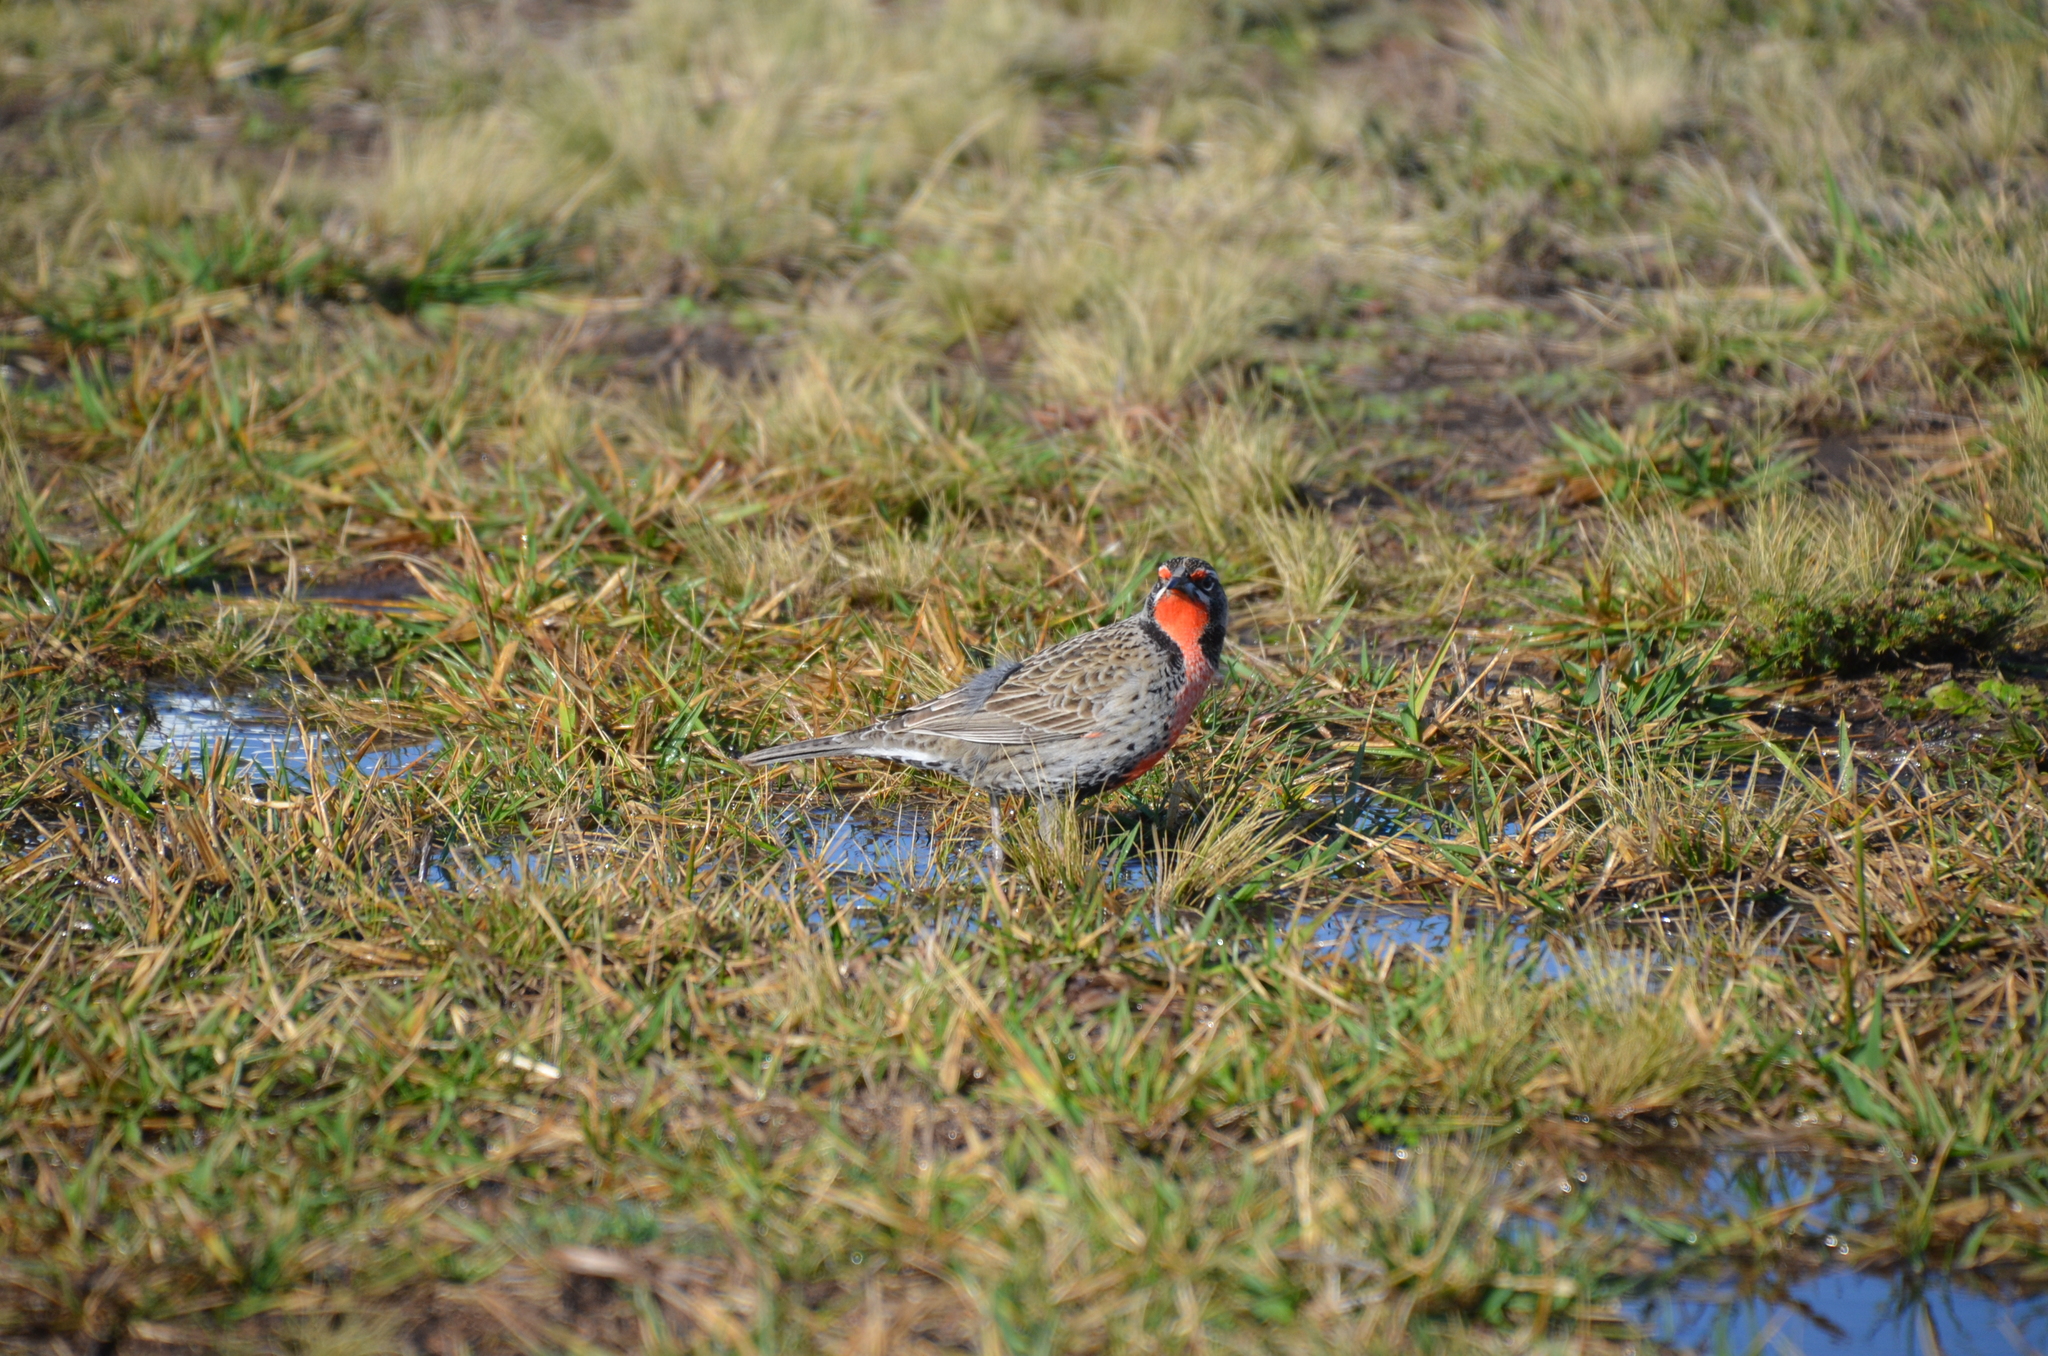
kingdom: Animalia
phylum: Chordata
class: Aves
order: Passeriformes
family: Icteridae
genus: Sturnella
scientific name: Sturnella loyca
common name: Long-tailed meadowlark
